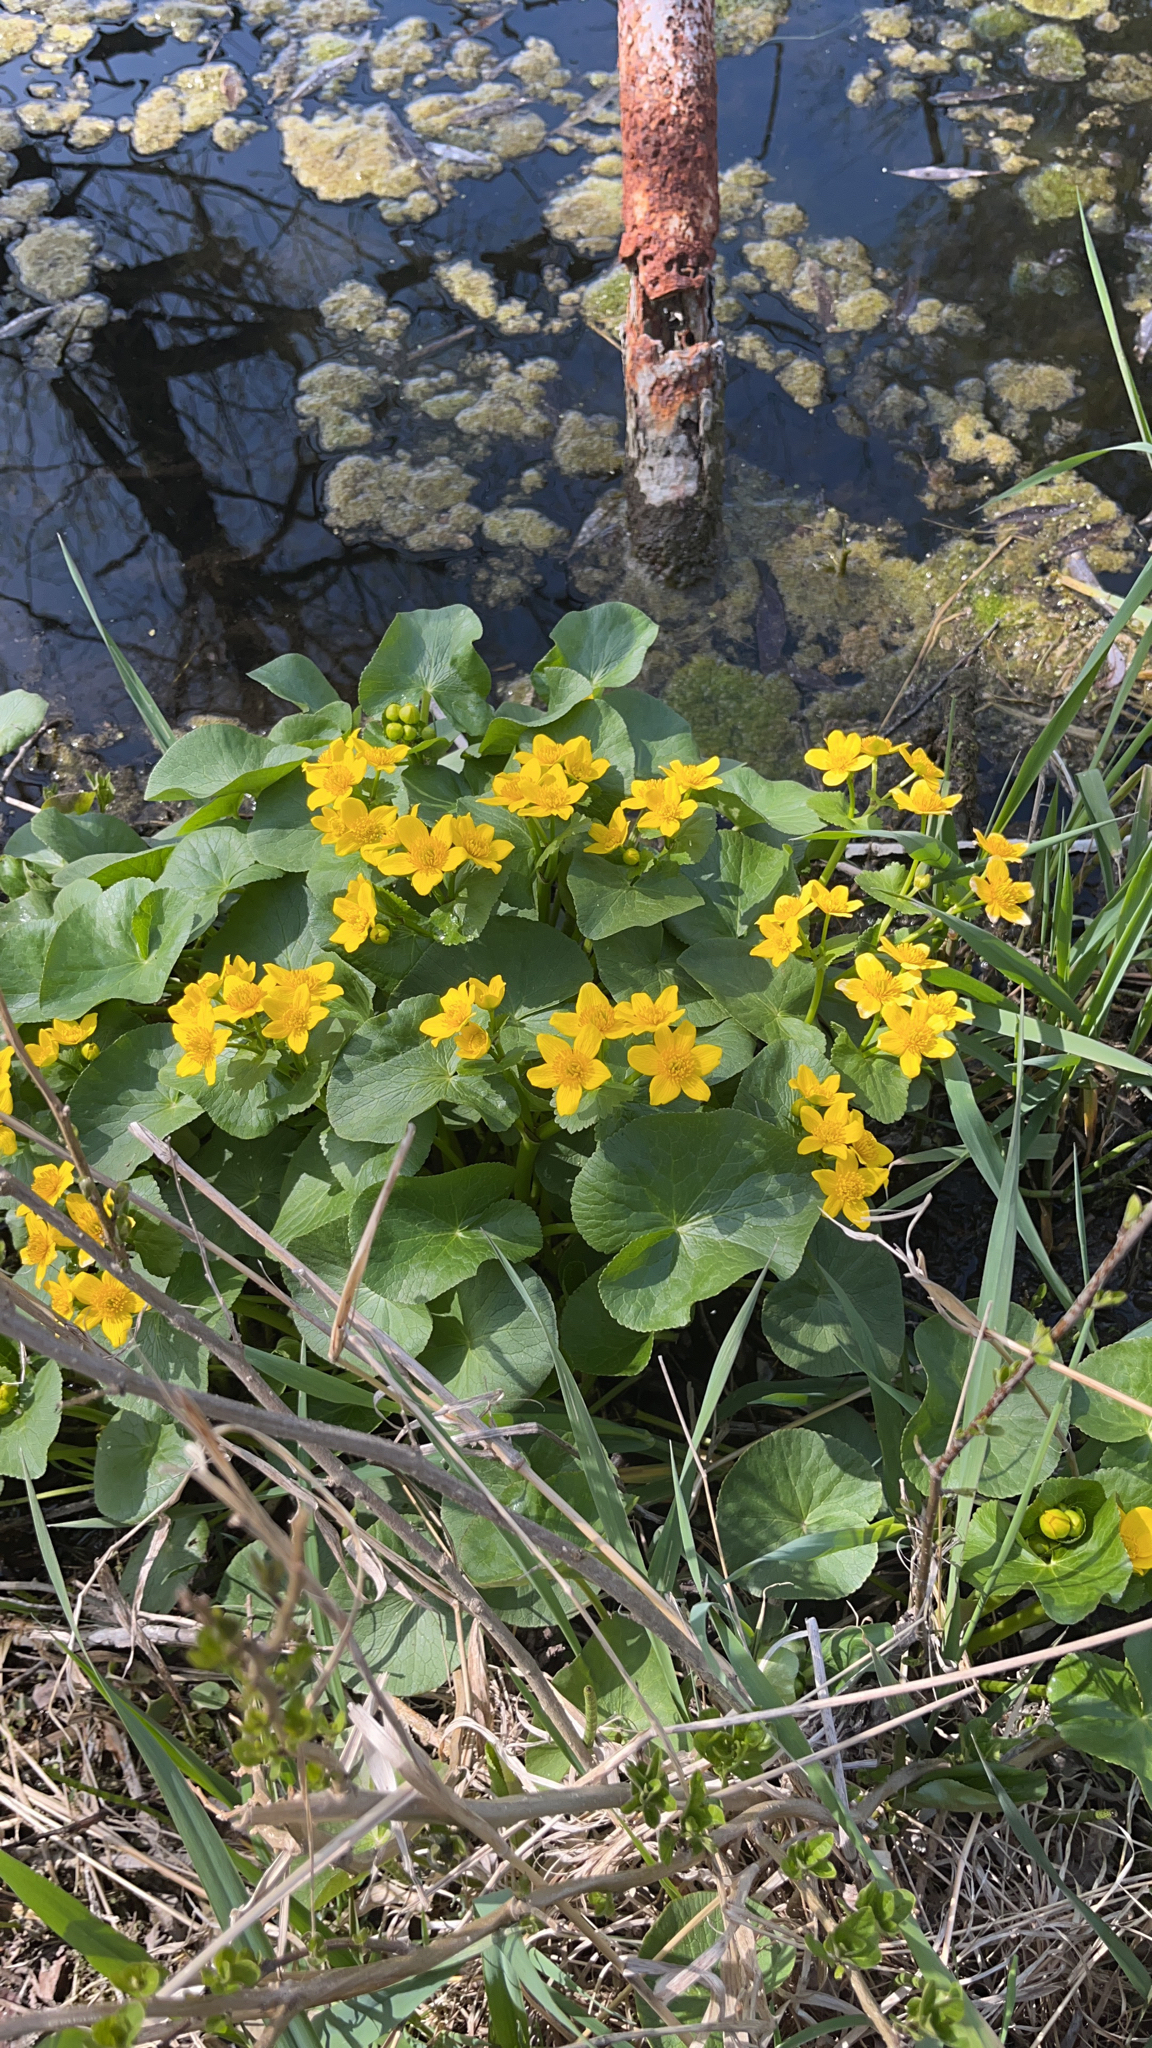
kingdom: Plantae
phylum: Tracheophyta
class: Magnoliopsida
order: Ranunculales
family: Ranunculaceae
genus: Caltha
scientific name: Caltha palustris
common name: Marsh marigold
